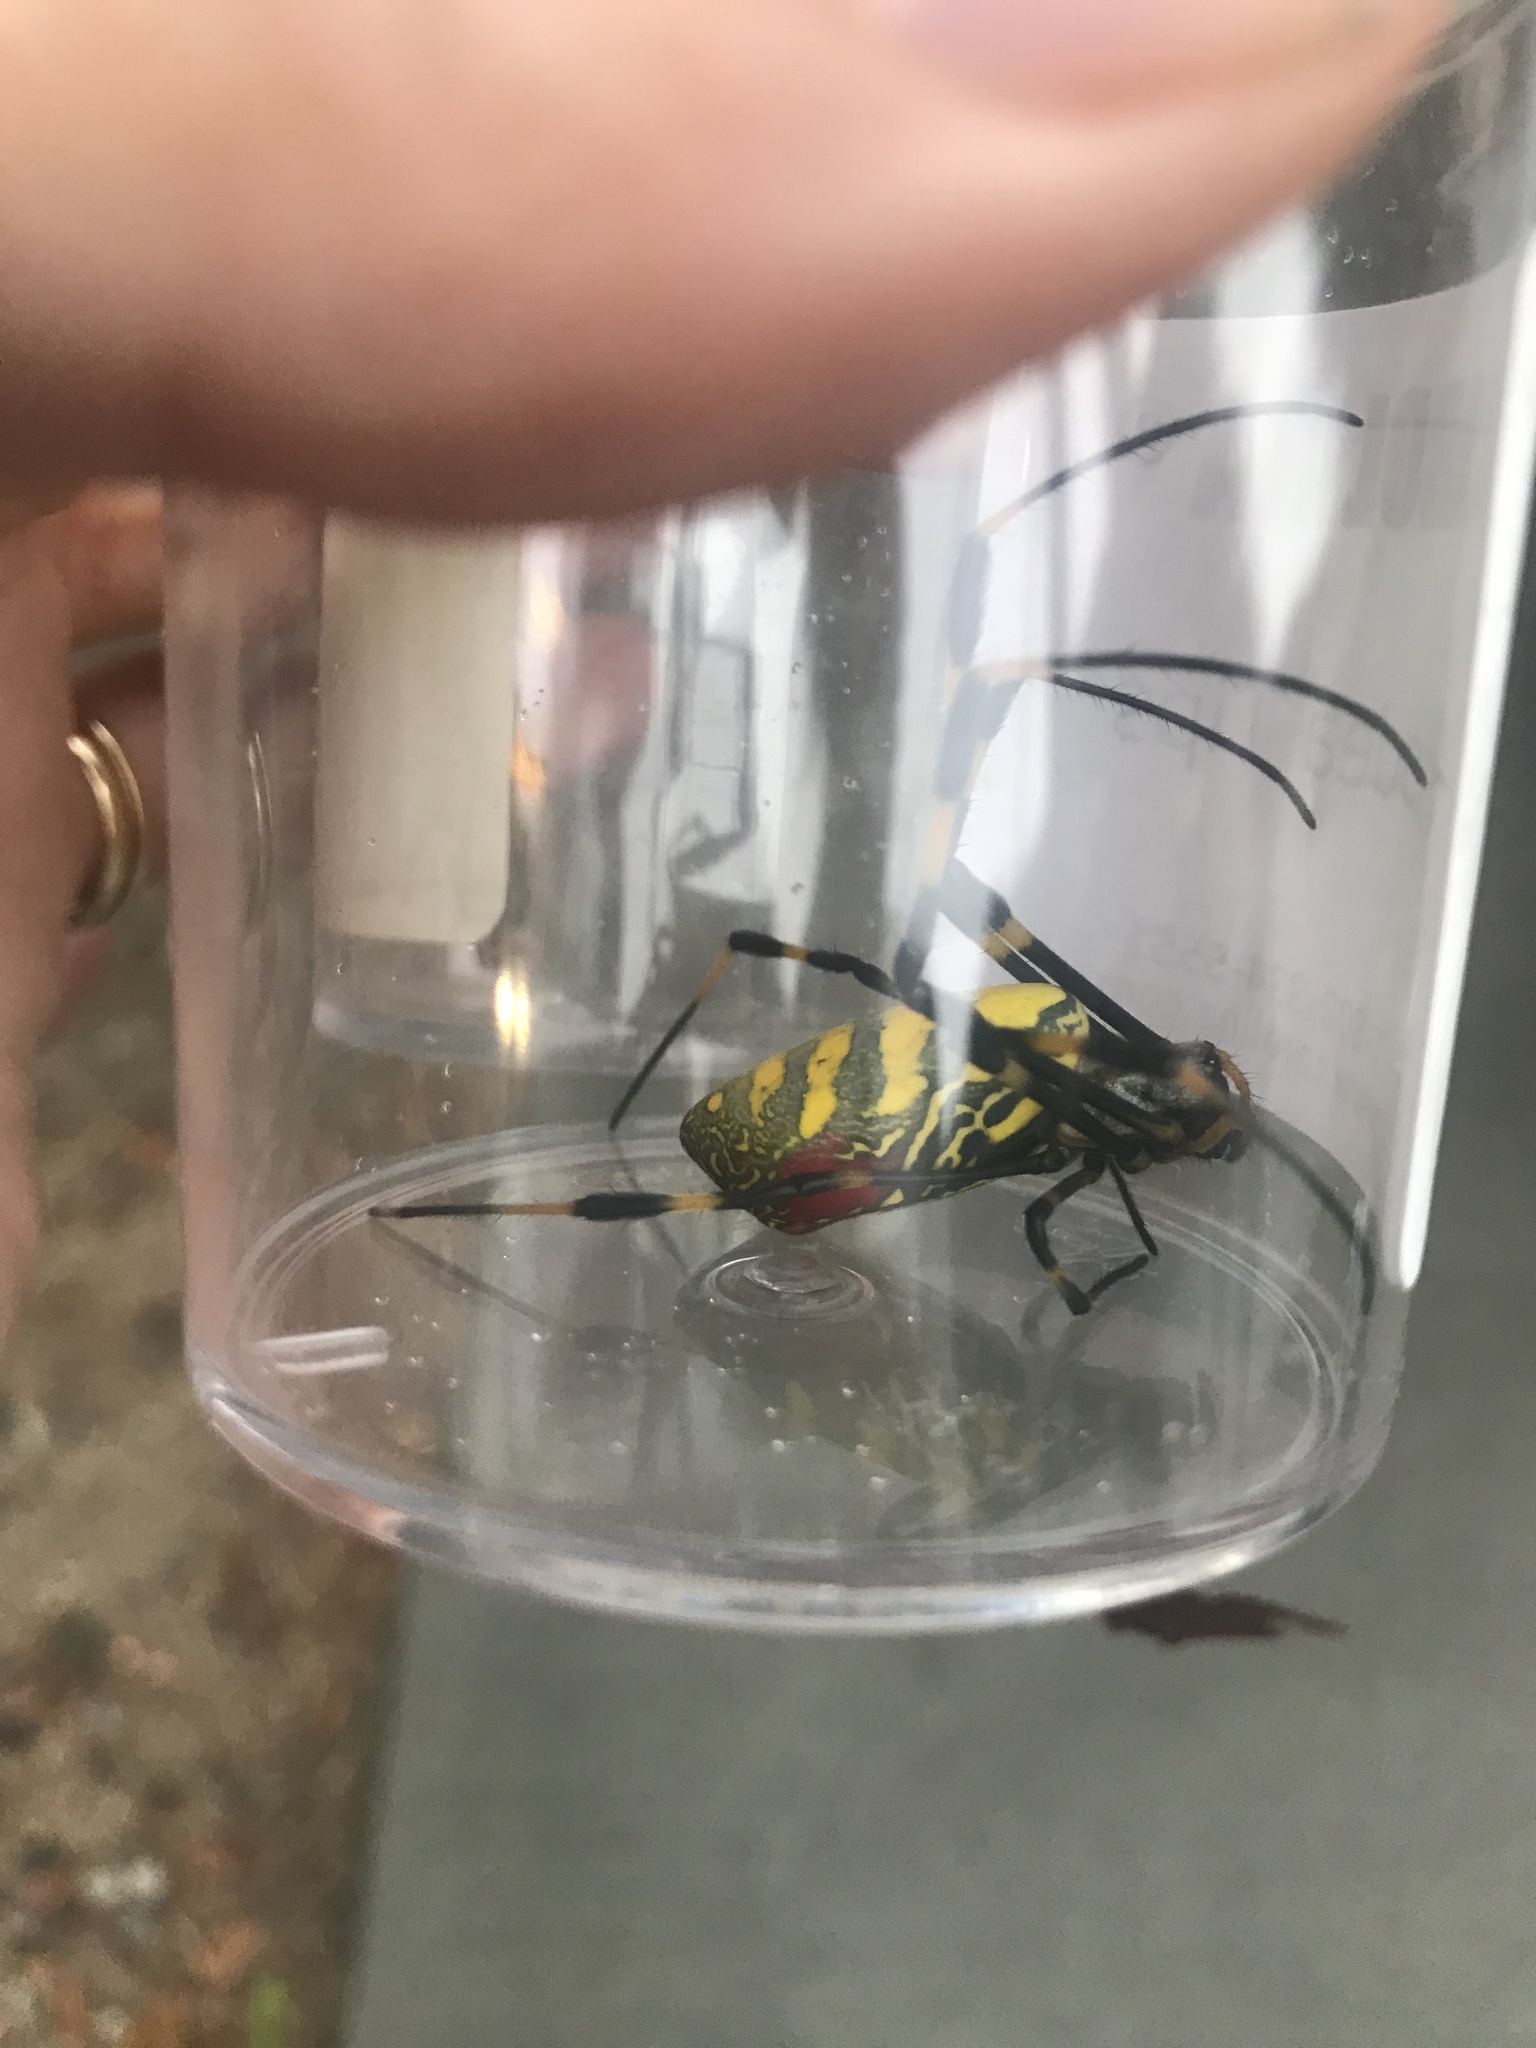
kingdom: Animalia
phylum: Arthropoda
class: Arachnida
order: Araneae
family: Araneidae
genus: Trichonephila
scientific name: Trichonephila clavata
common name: Jorō spider
